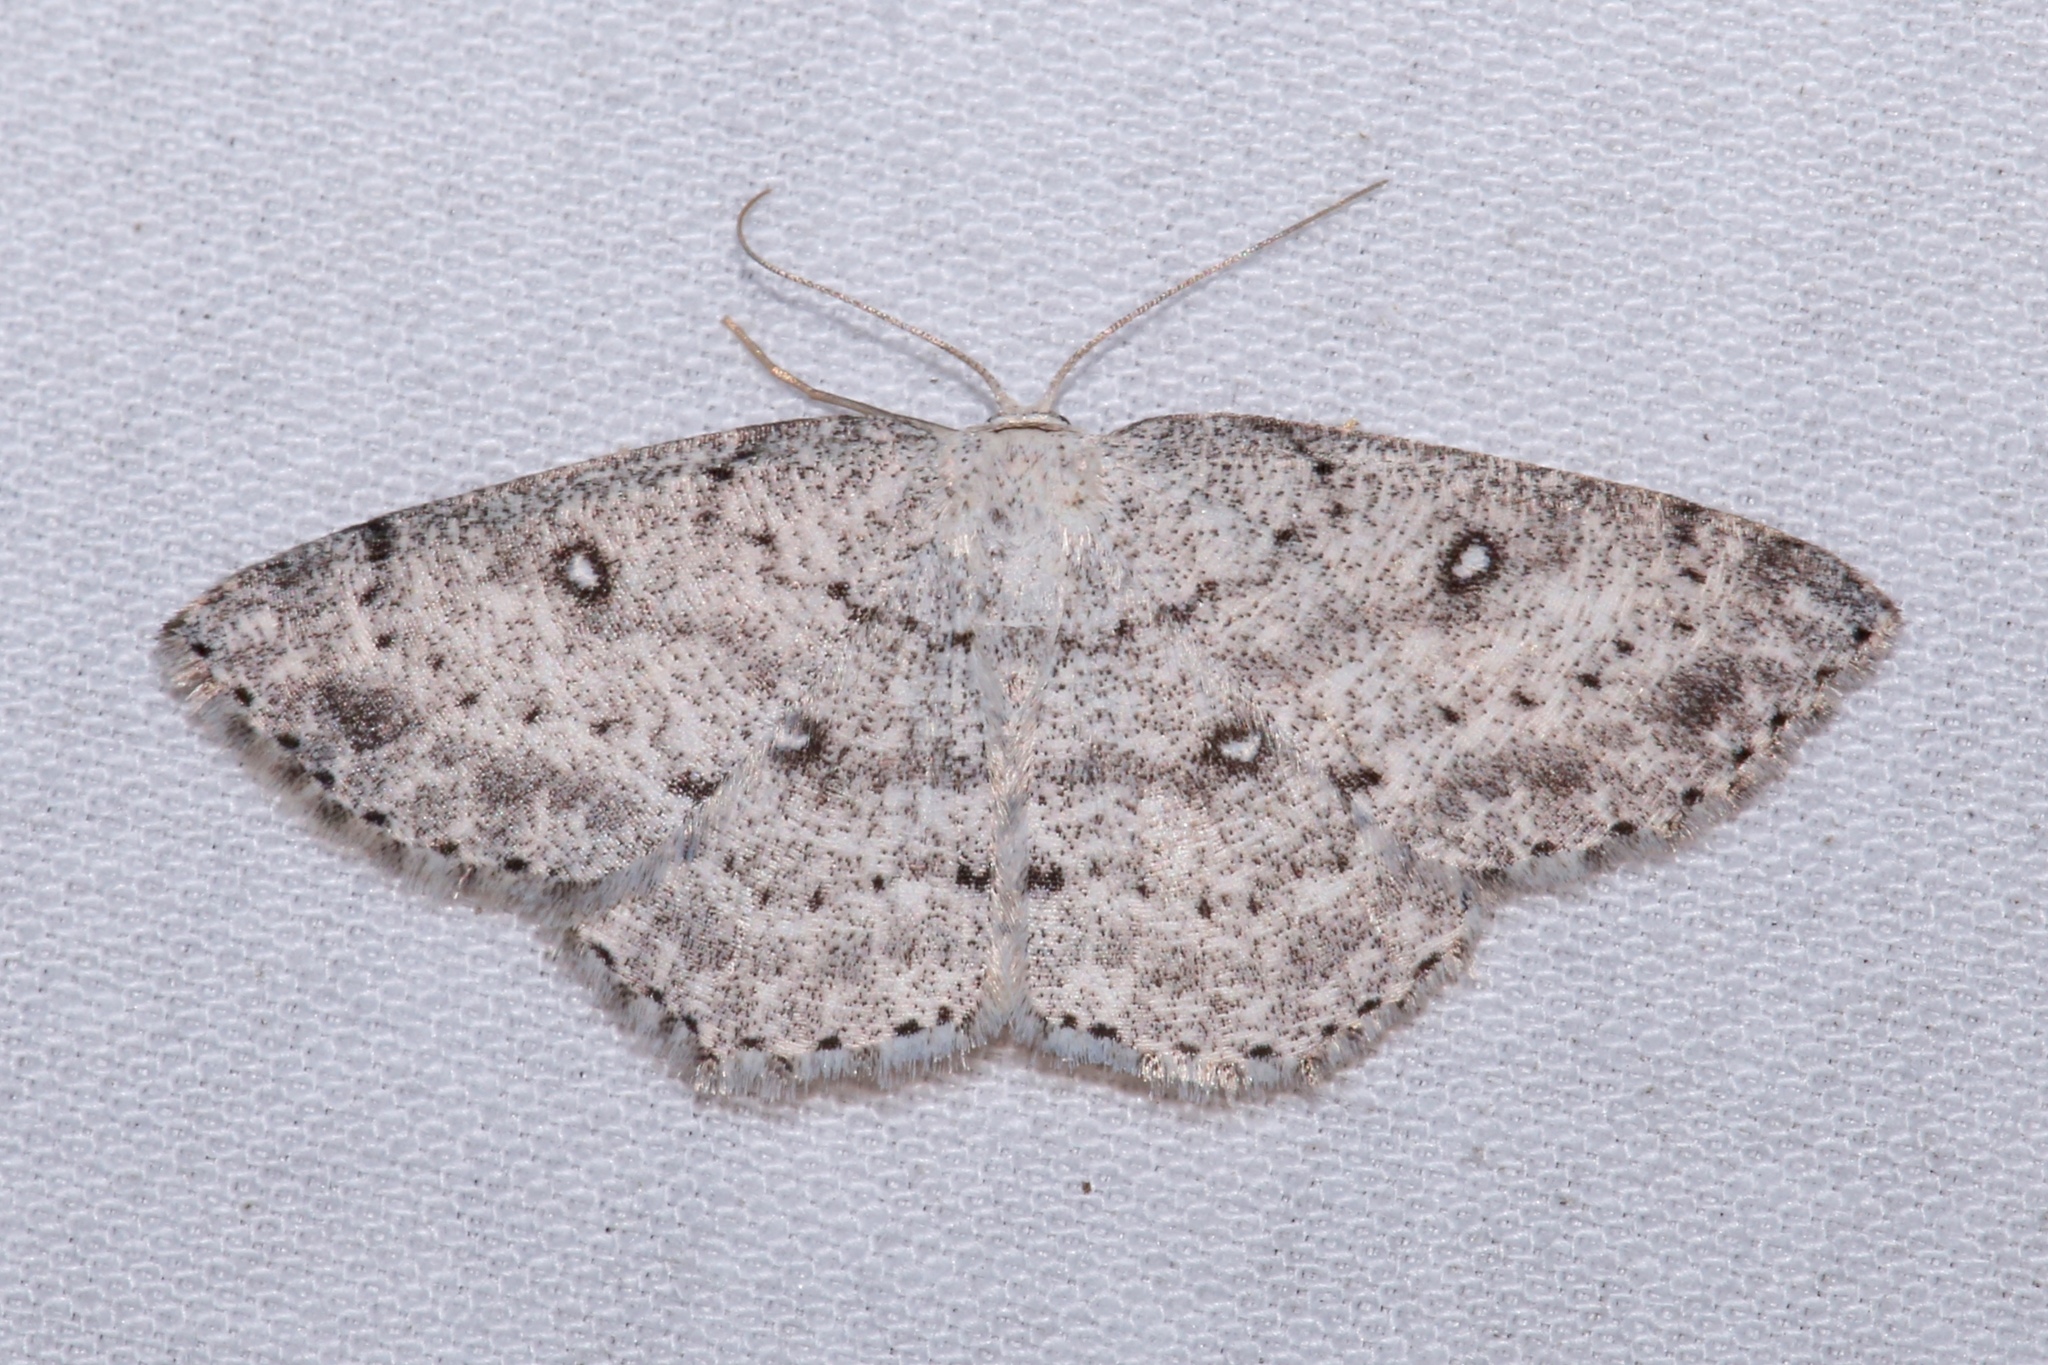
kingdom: Animalia
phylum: Arthropoda
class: Insecta
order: Lepidoptera
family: Geometridae
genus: Cyclophora
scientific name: Cyclophora pendulinaria
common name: Sweet fern geometer
